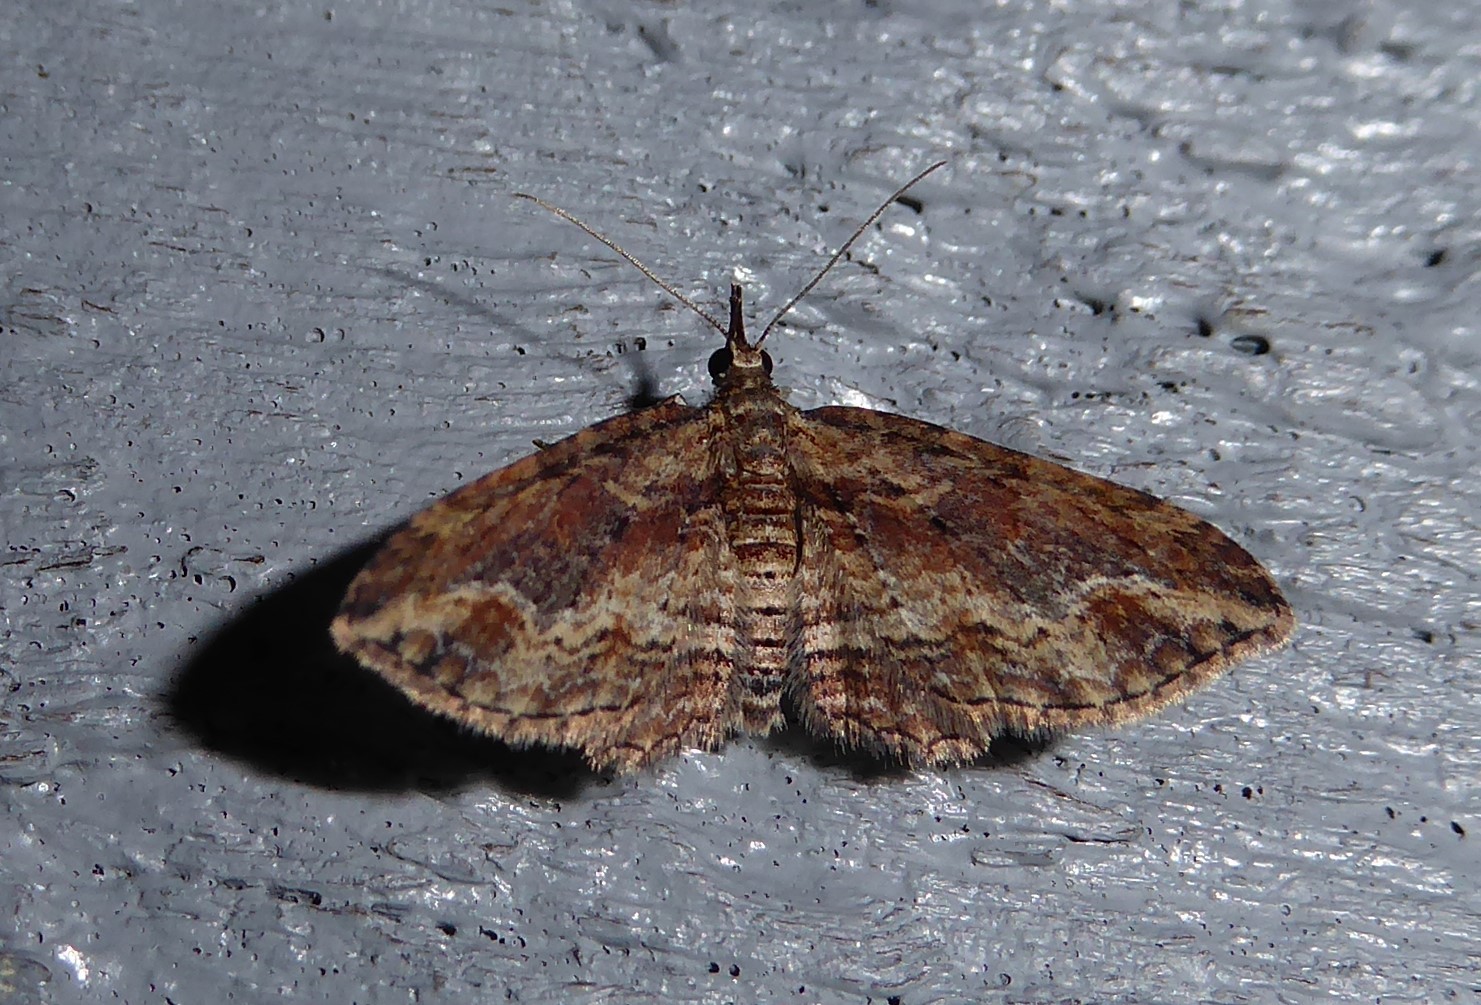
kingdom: Animalia
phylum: Arthropoda
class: Insecta
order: Lepidoptera
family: Geometridae
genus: Chloroclystis
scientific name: Chloroclystis filata
